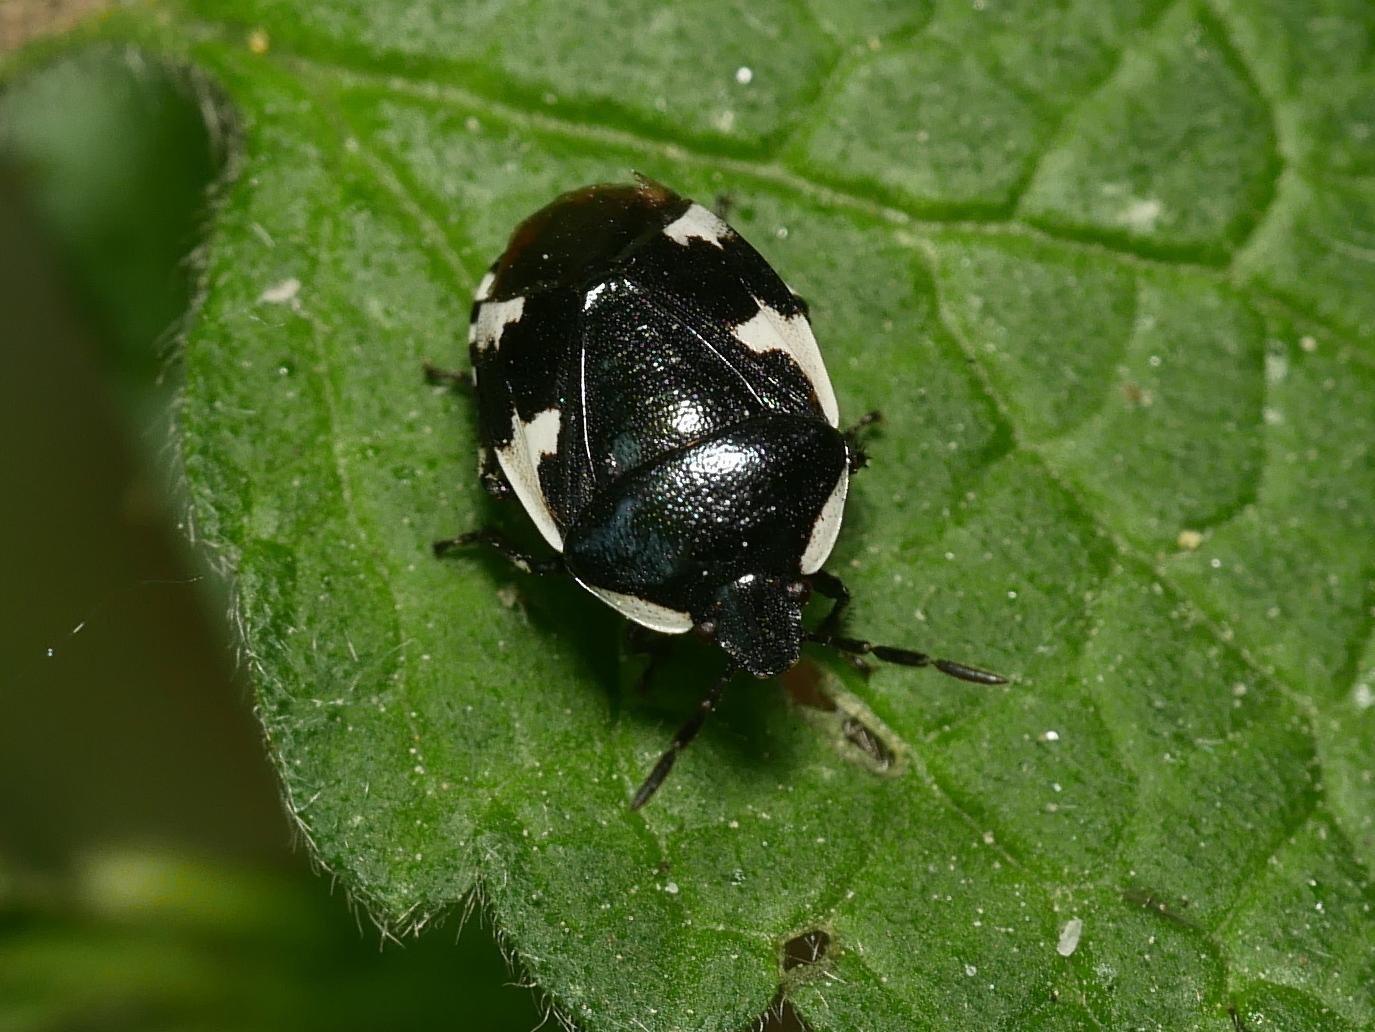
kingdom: Animalia
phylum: Arthropoda
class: Insecta
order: Hemiptera
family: Cydnidae
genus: Tritomegas
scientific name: Tritomegas sexmaculatus
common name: Rambur's pied shieldbug
